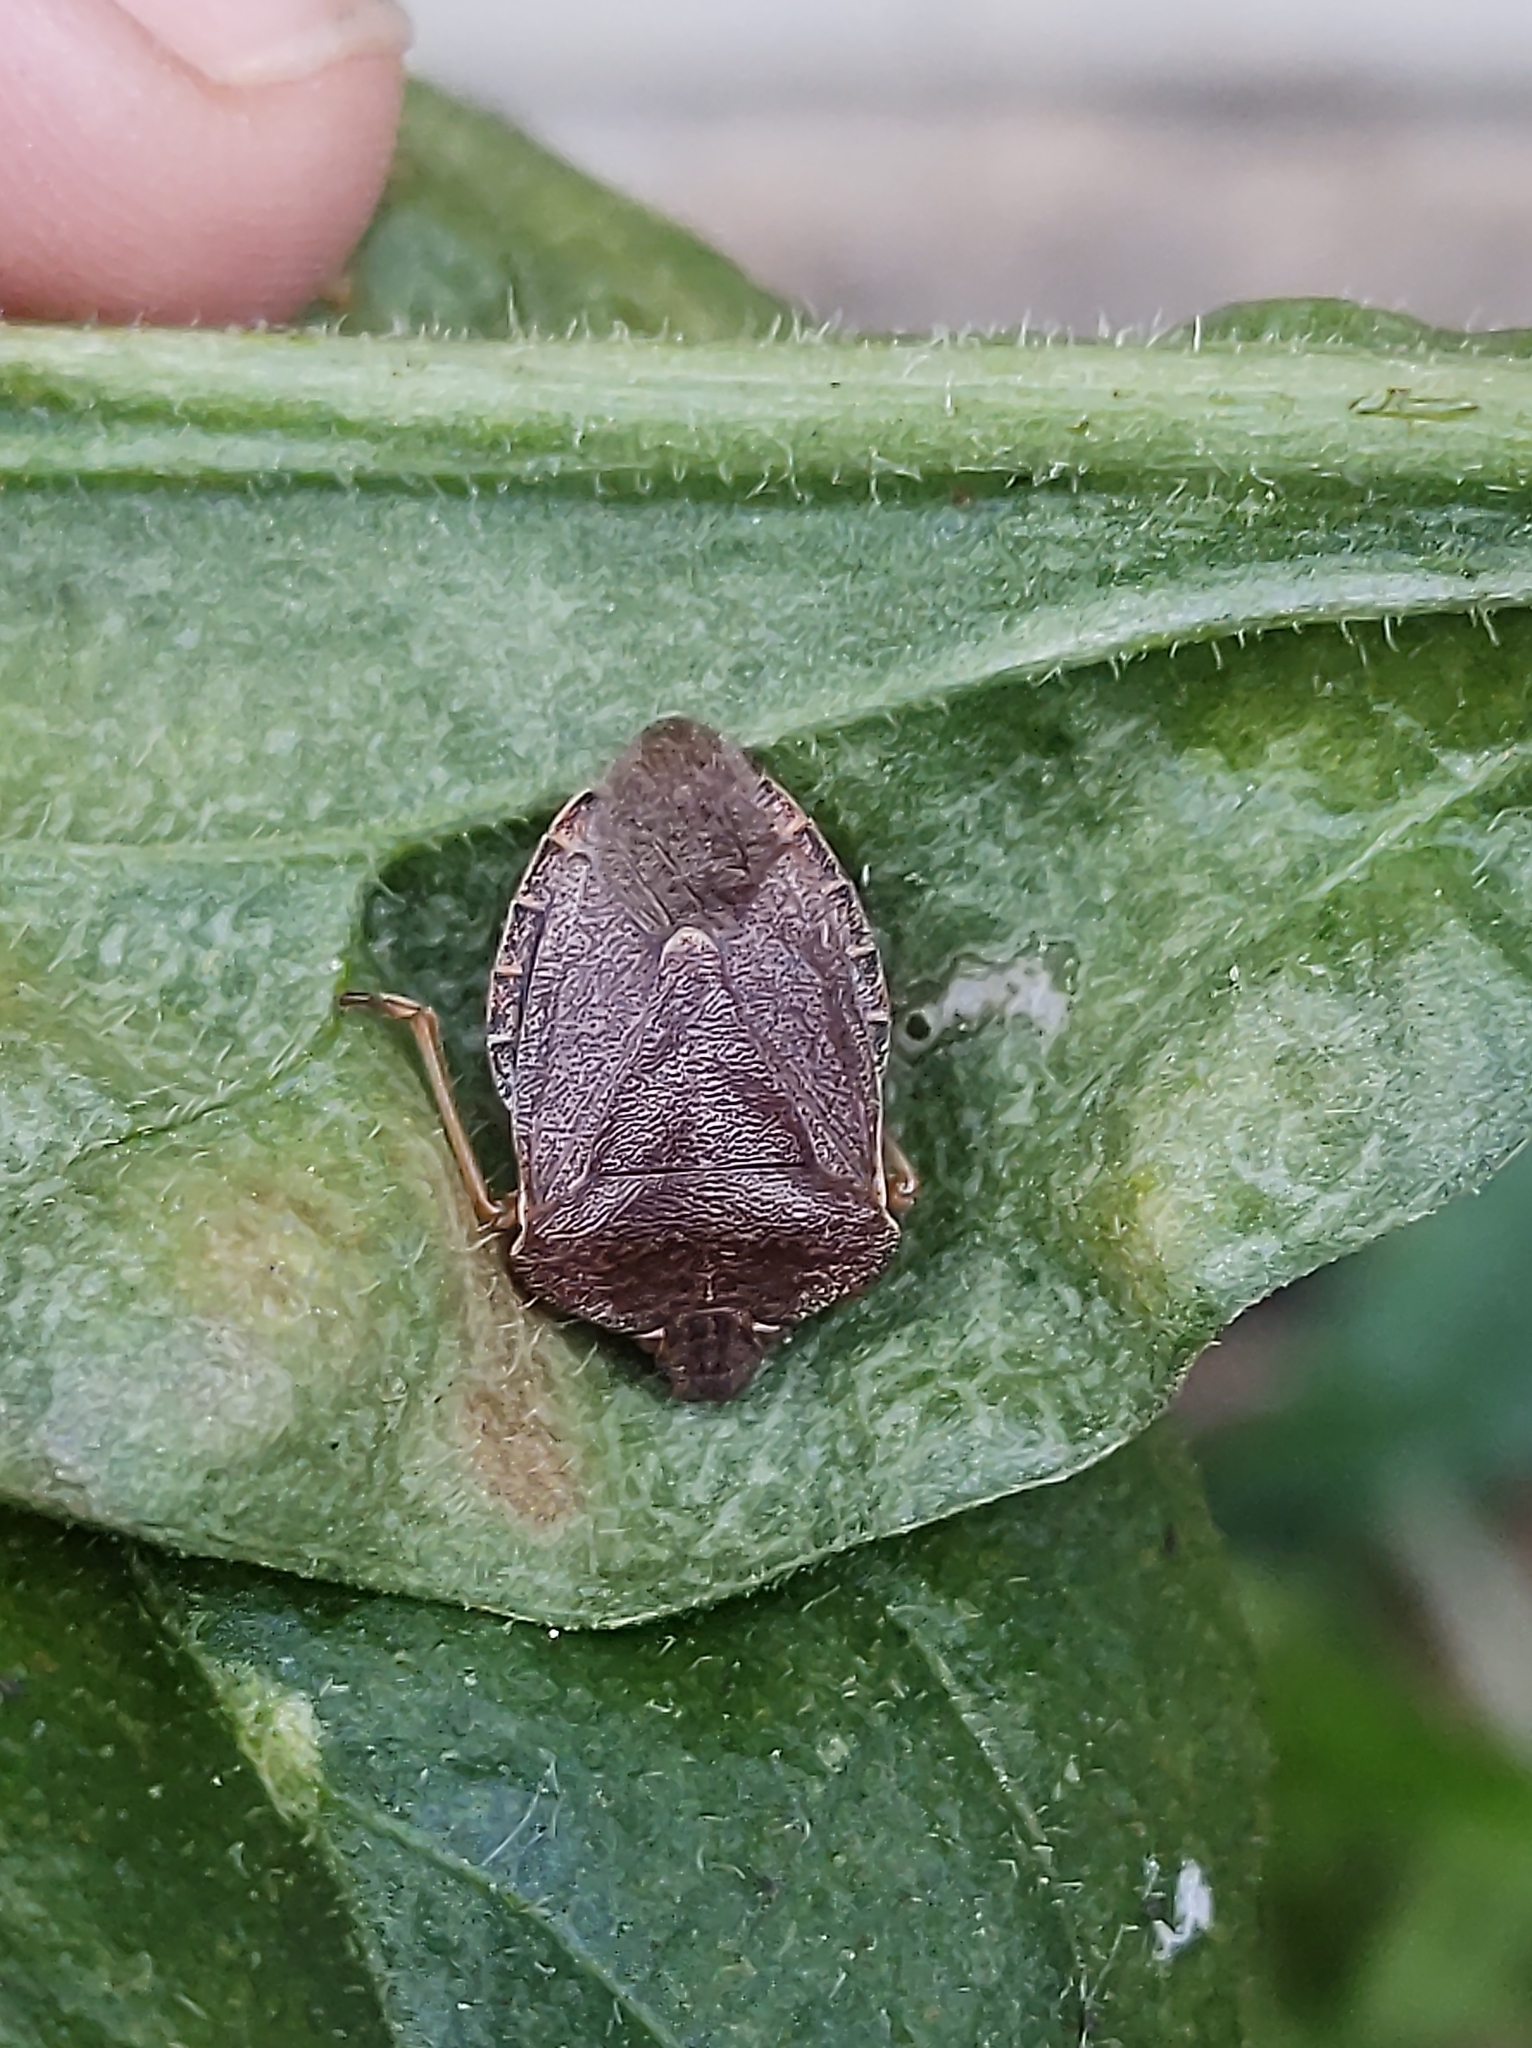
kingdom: Animalia
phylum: Arthropoda
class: Insecta
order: Hemiptera
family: Pentatomidae
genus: Palomena
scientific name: Palomena prasina
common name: Green shieldbug
